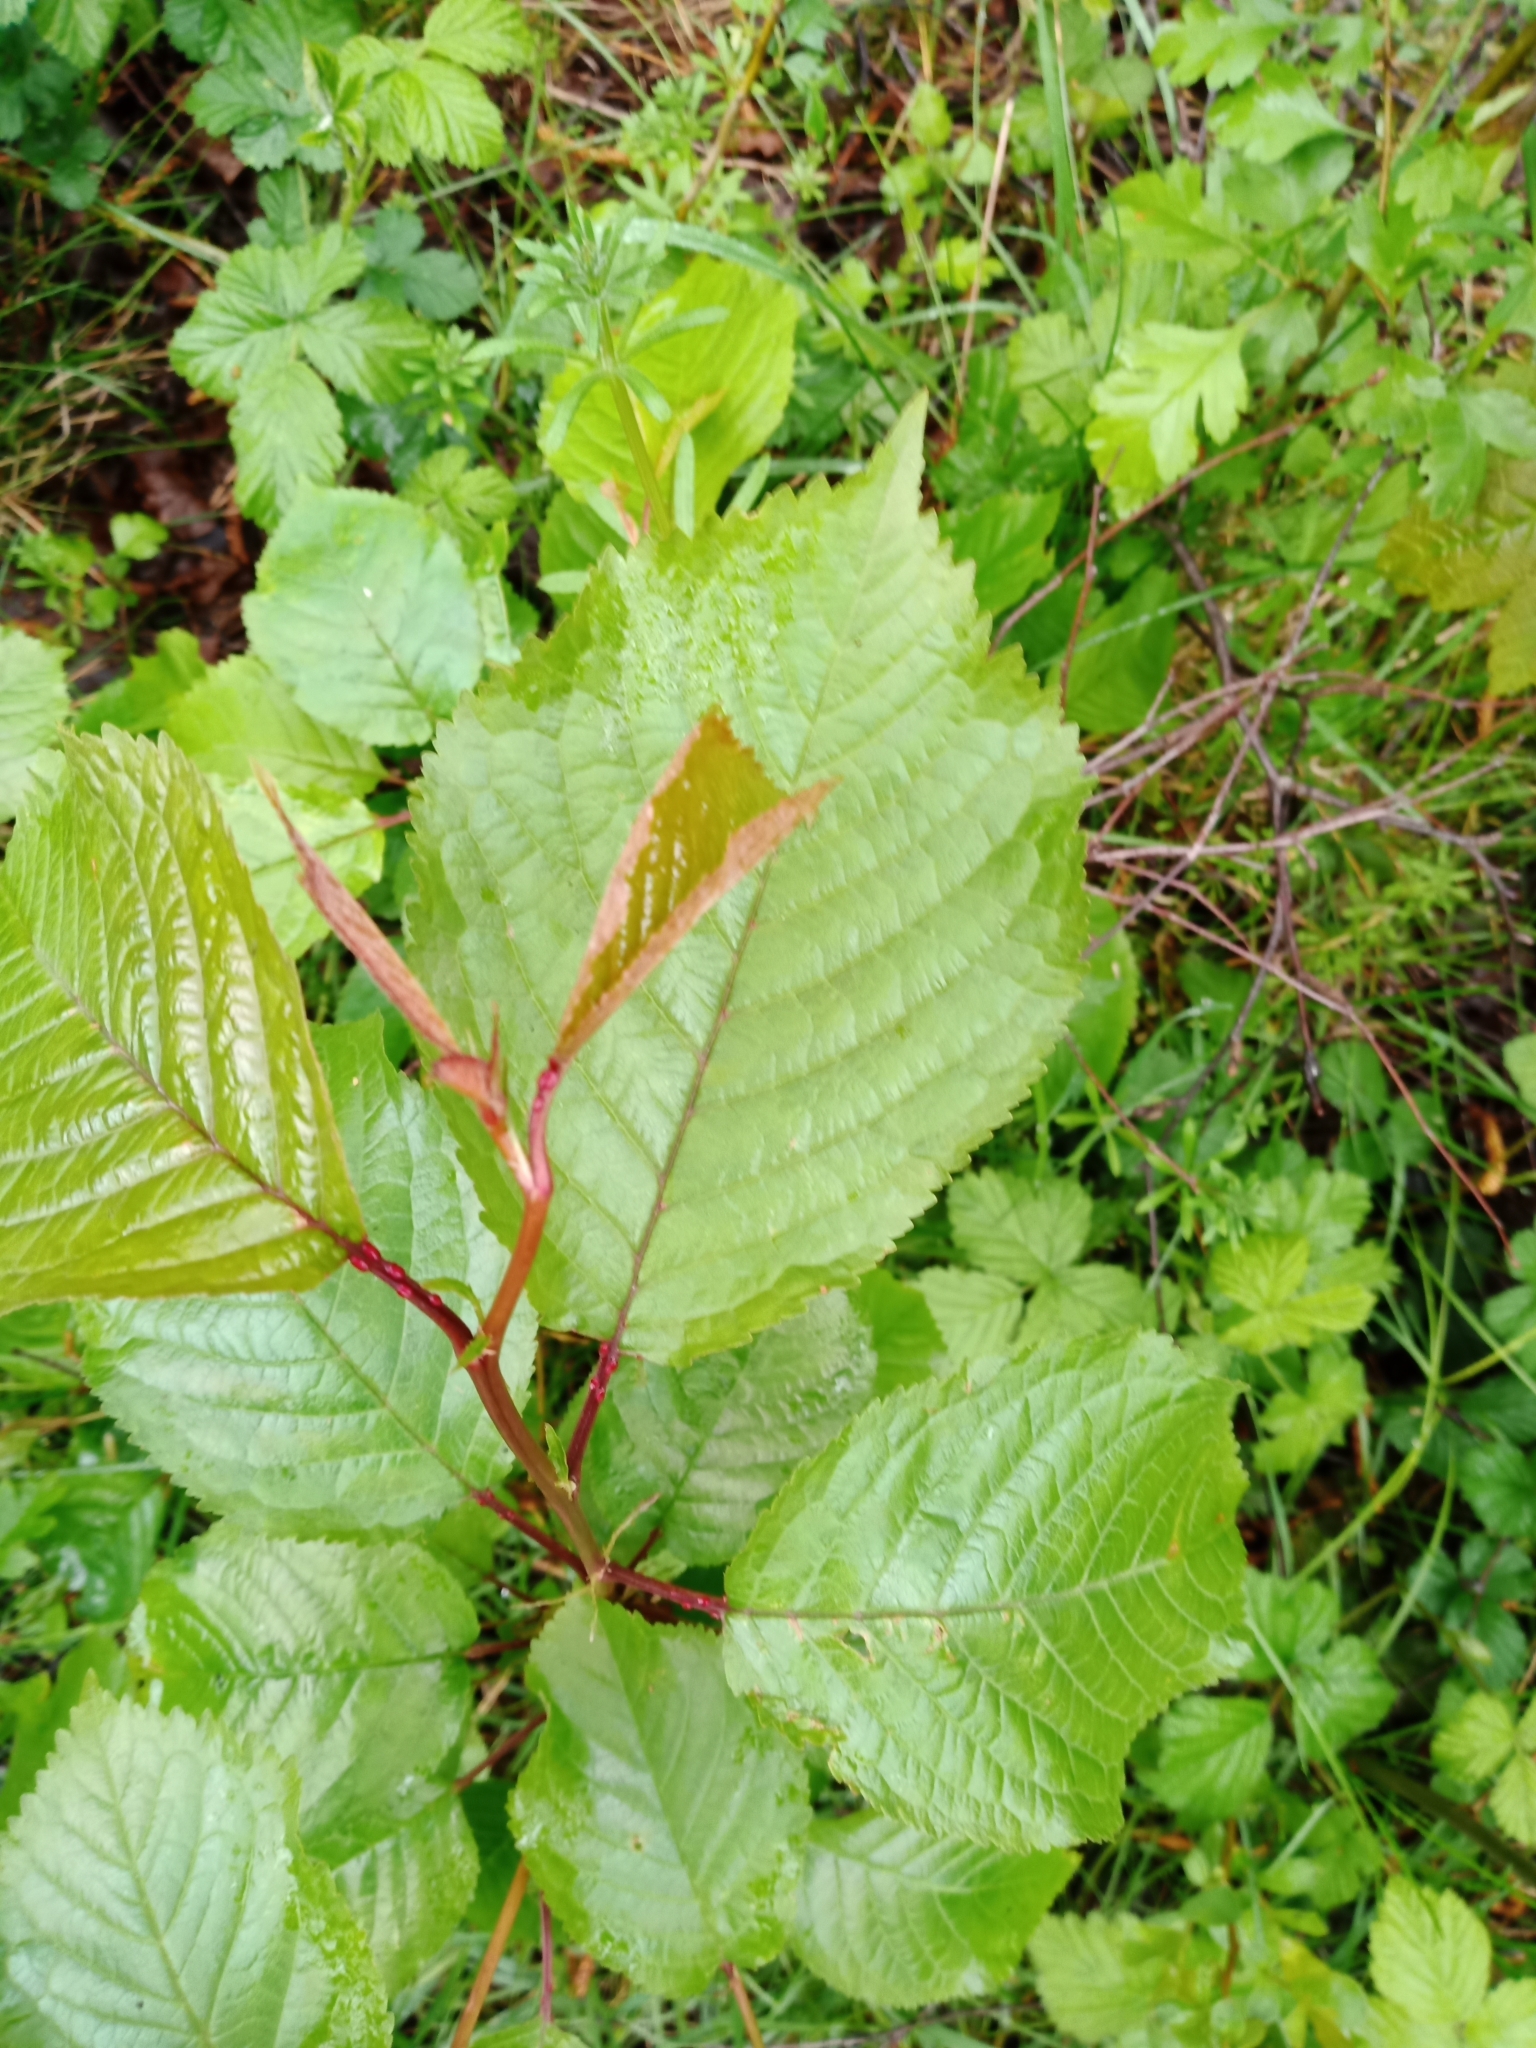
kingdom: Plantae
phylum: Tracheophyta
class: Magnoliopsida
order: Rosales
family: Rosaceae
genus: Prunus
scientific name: Prunus avium
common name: Sweet cherry
